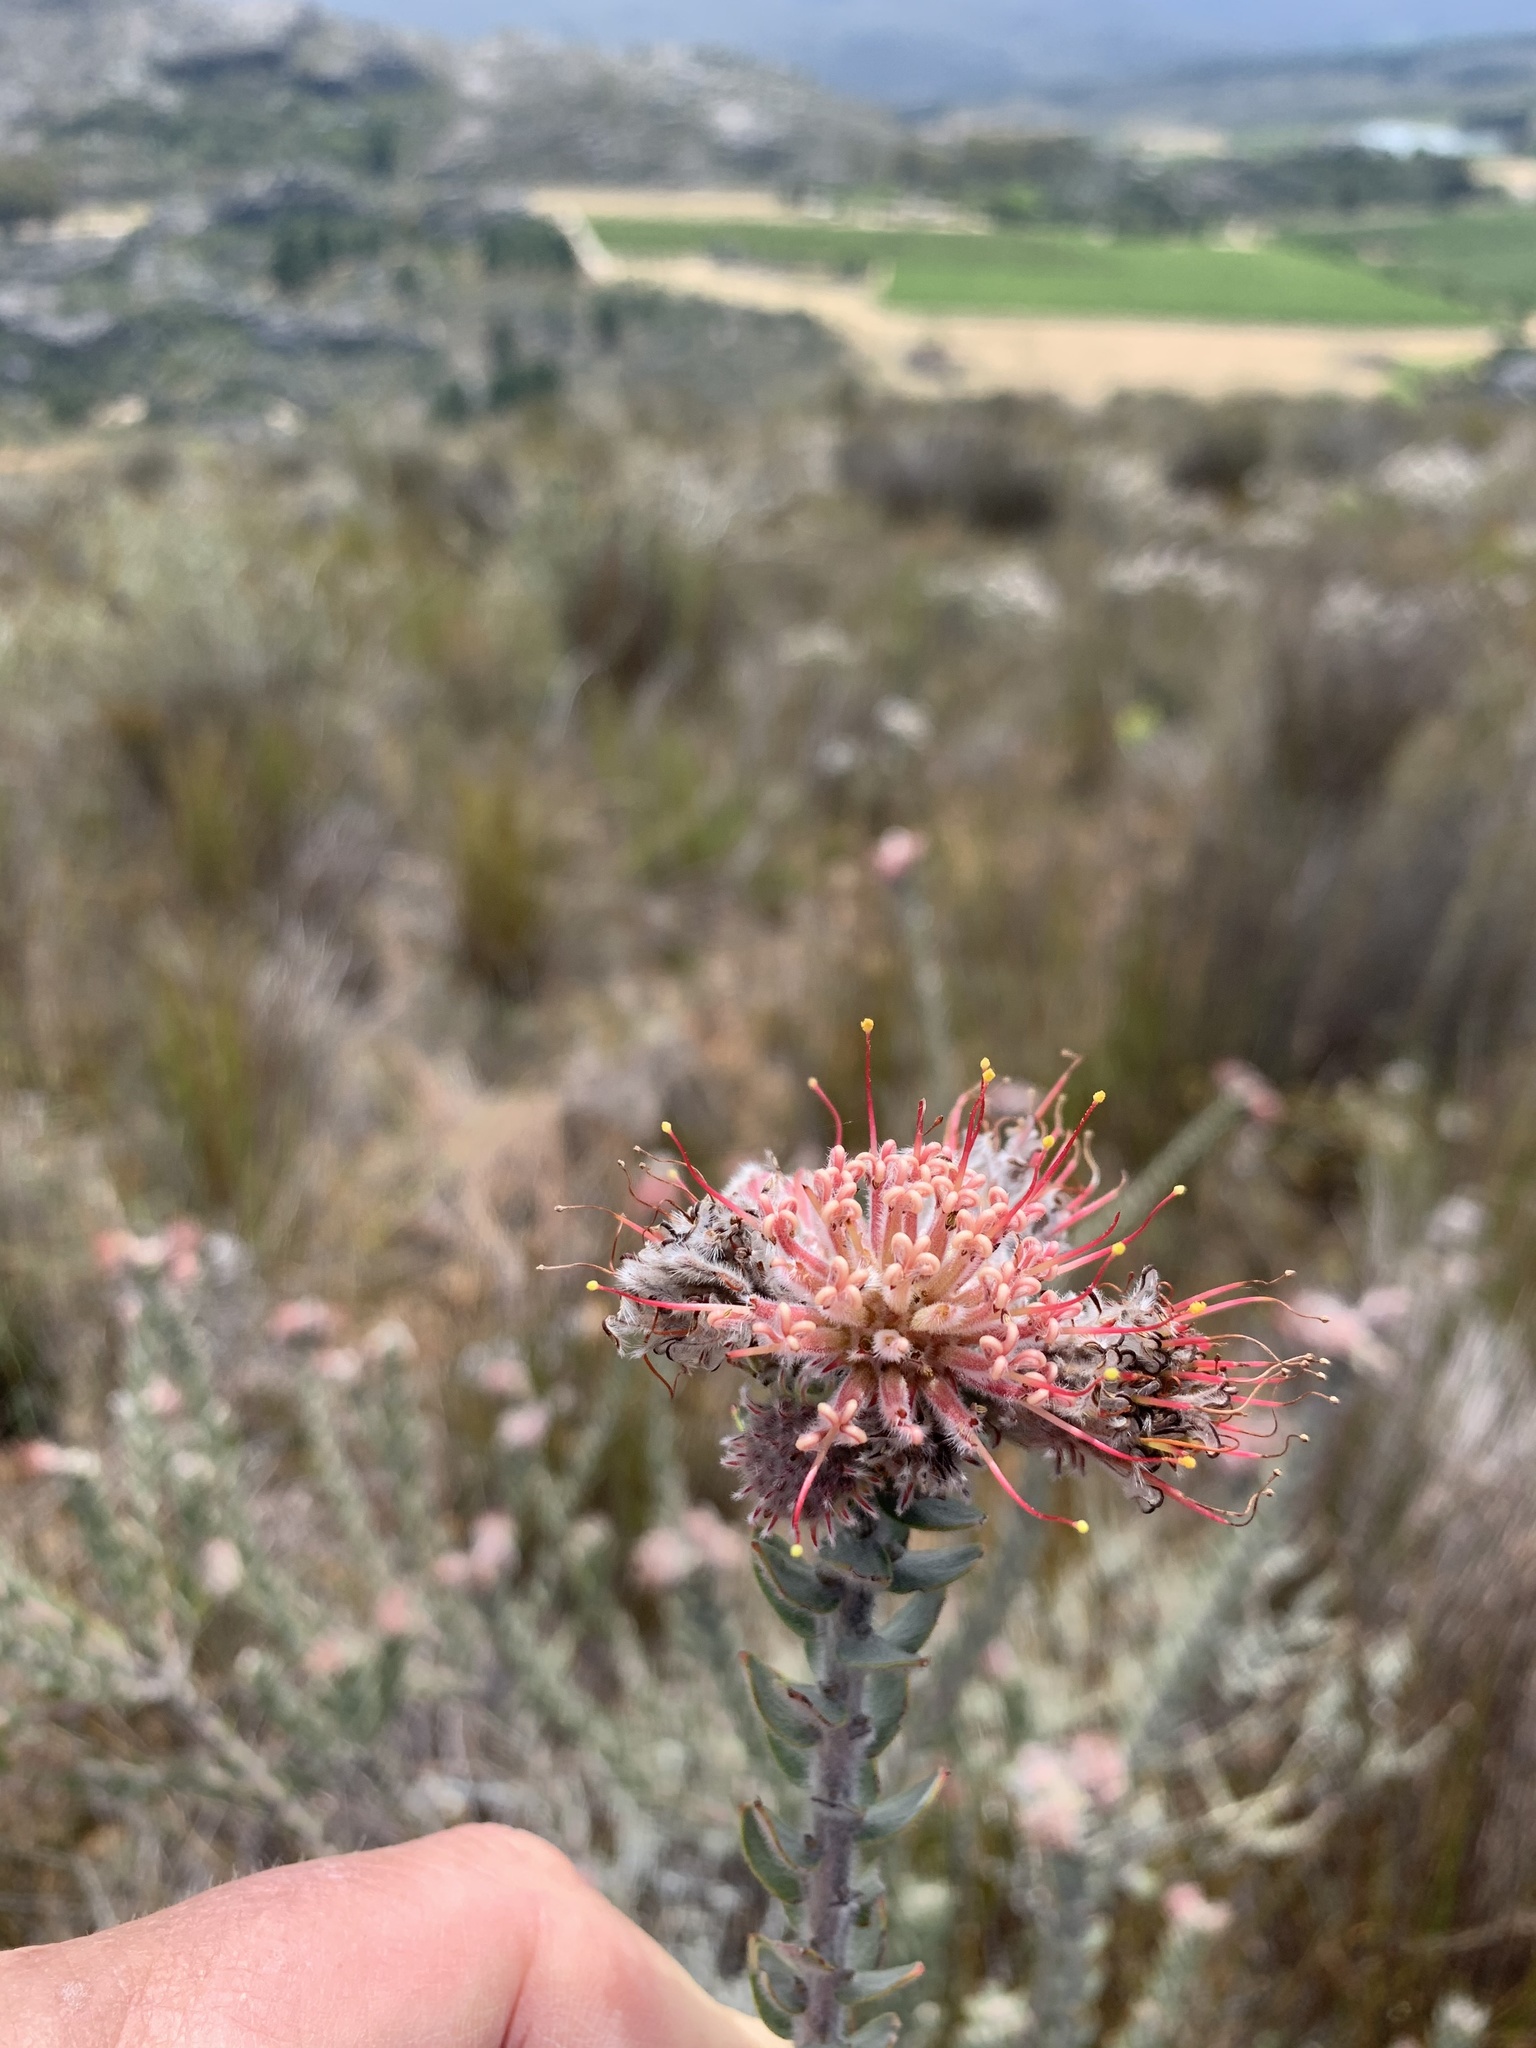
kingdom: Plantae
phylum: Tracheophyta
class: Magnoliopsida
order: Proteales
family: Proteaceae
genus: Leucospermum
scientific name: Leucospermum calligerum
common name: Arid pincushion
